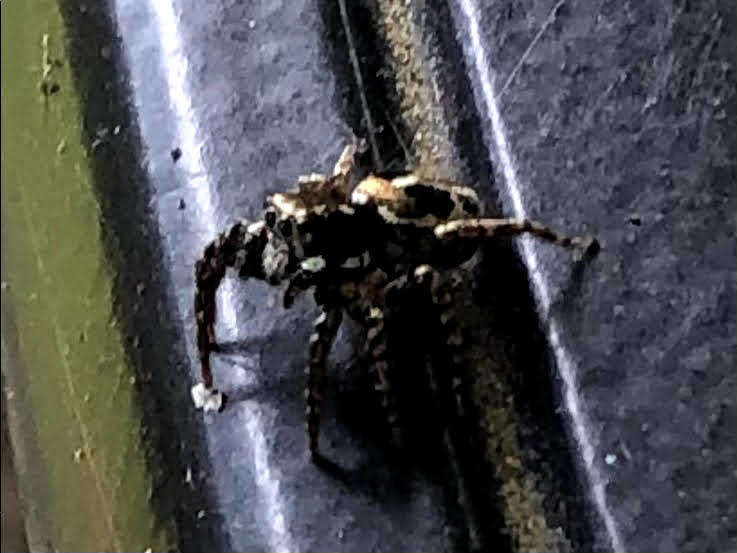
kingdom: Animalia
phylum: Arthropoda
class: Arachnida
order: Araneae
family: Salticidae
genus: Anasaitis
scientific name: Anasaitis canosa
